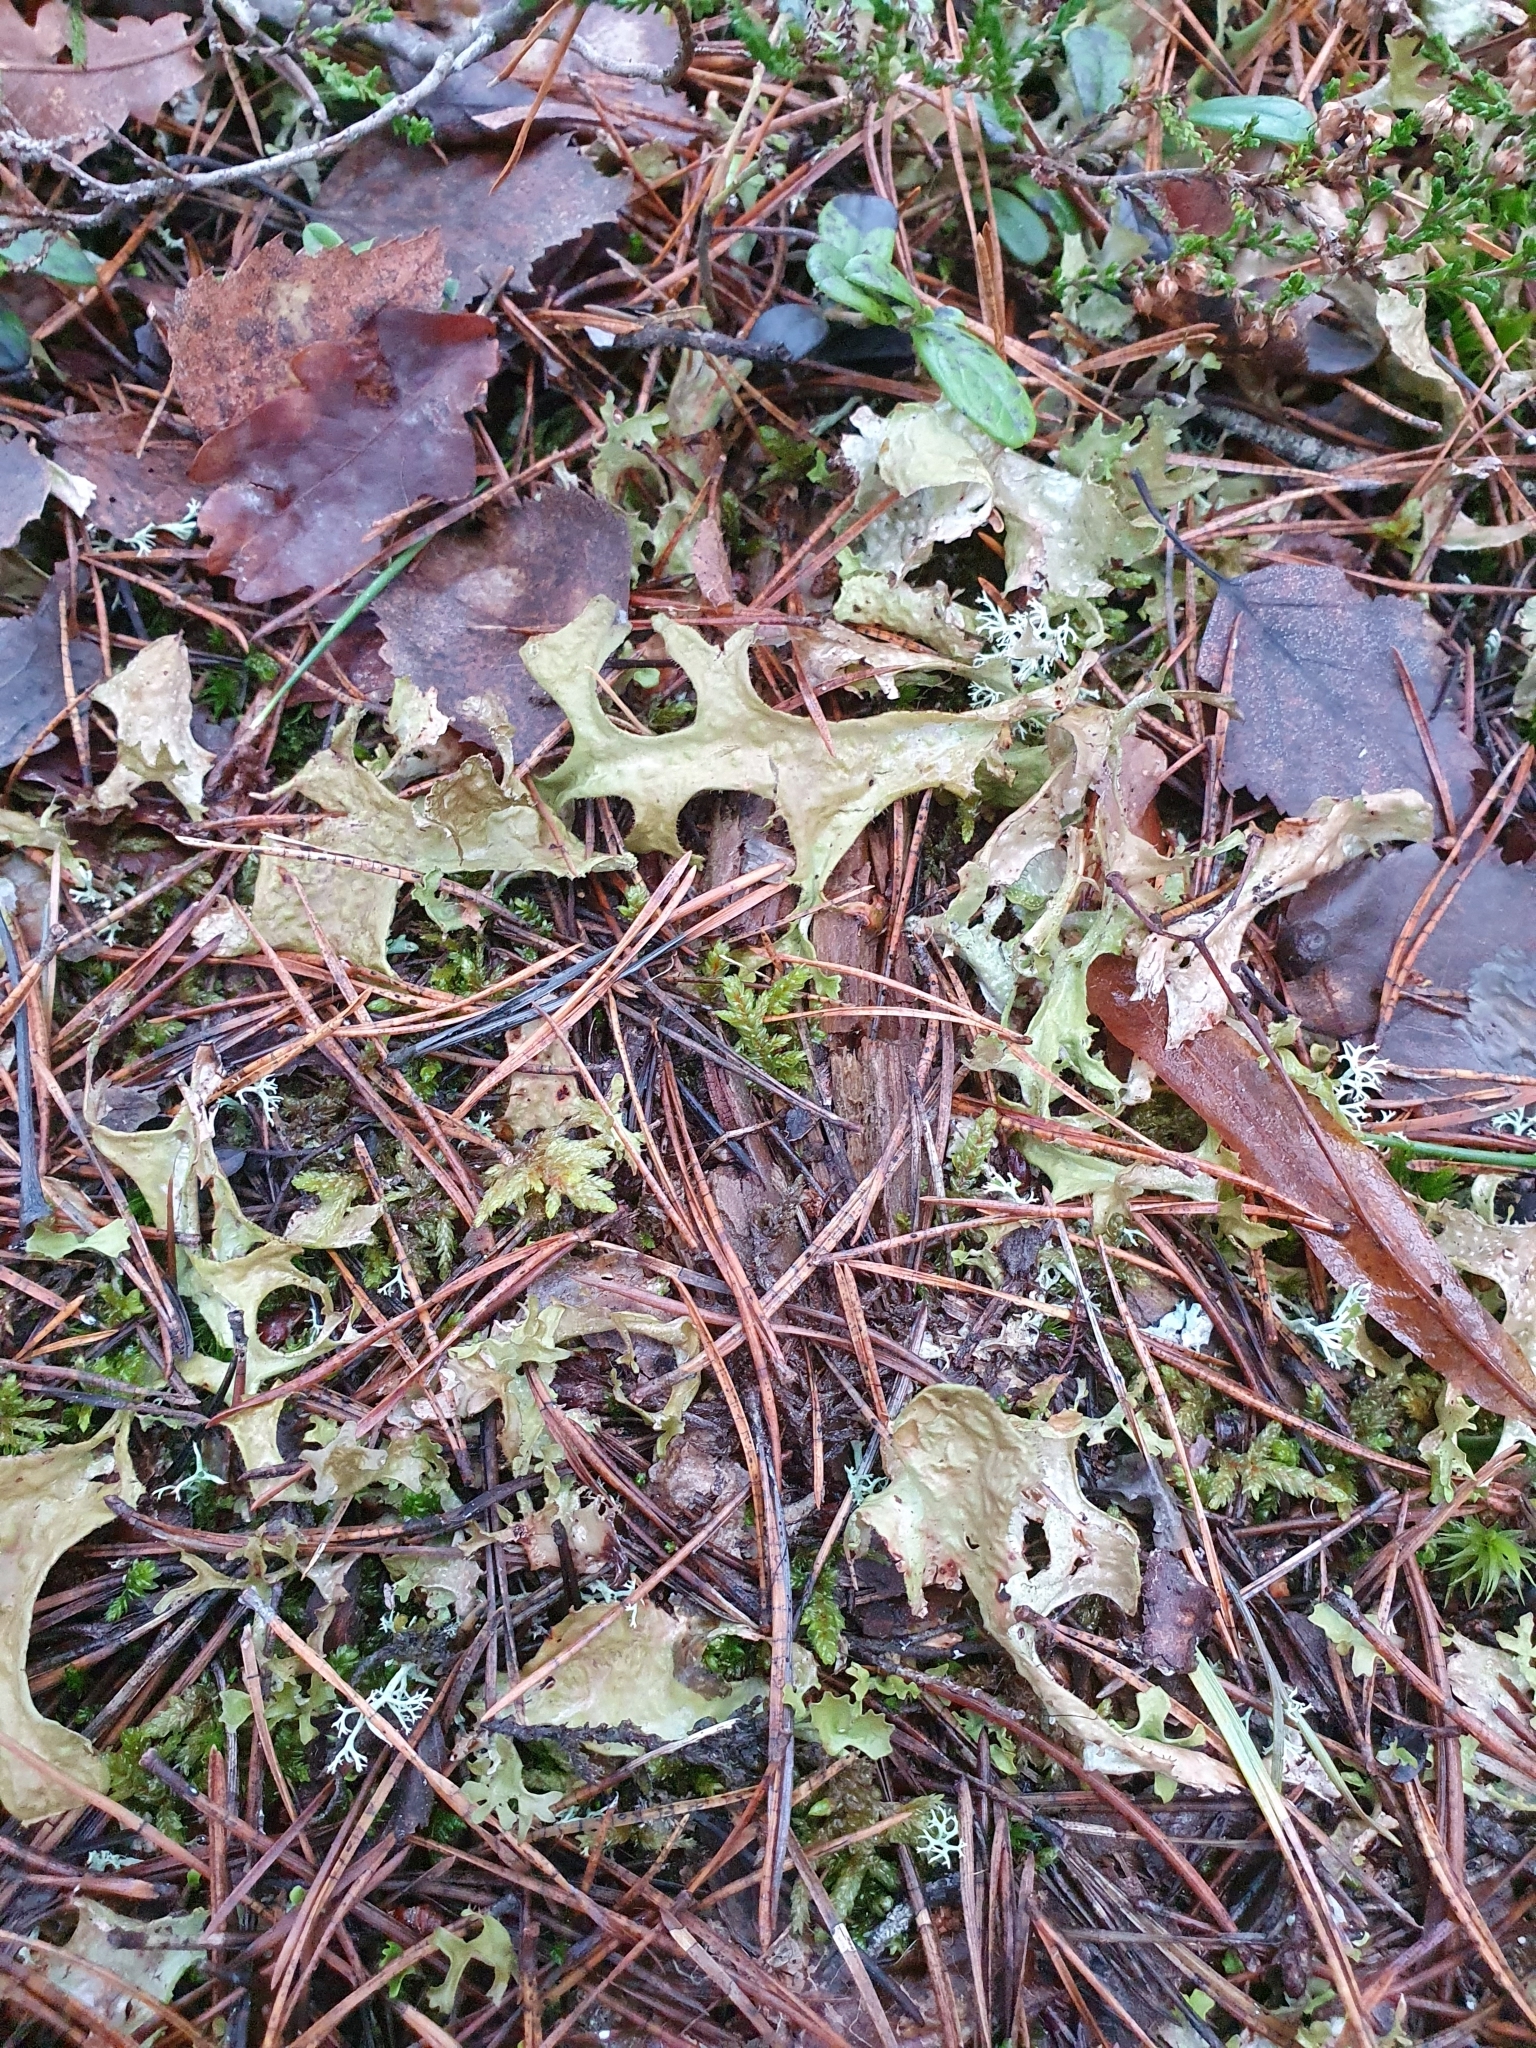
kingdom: Fungi
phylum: Ascomycota
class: Lecanoromycetes
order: Lecanorales
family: Parmeliaceae
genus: Cetraria
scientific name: Cetraria islandica
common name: Iceland lichen
